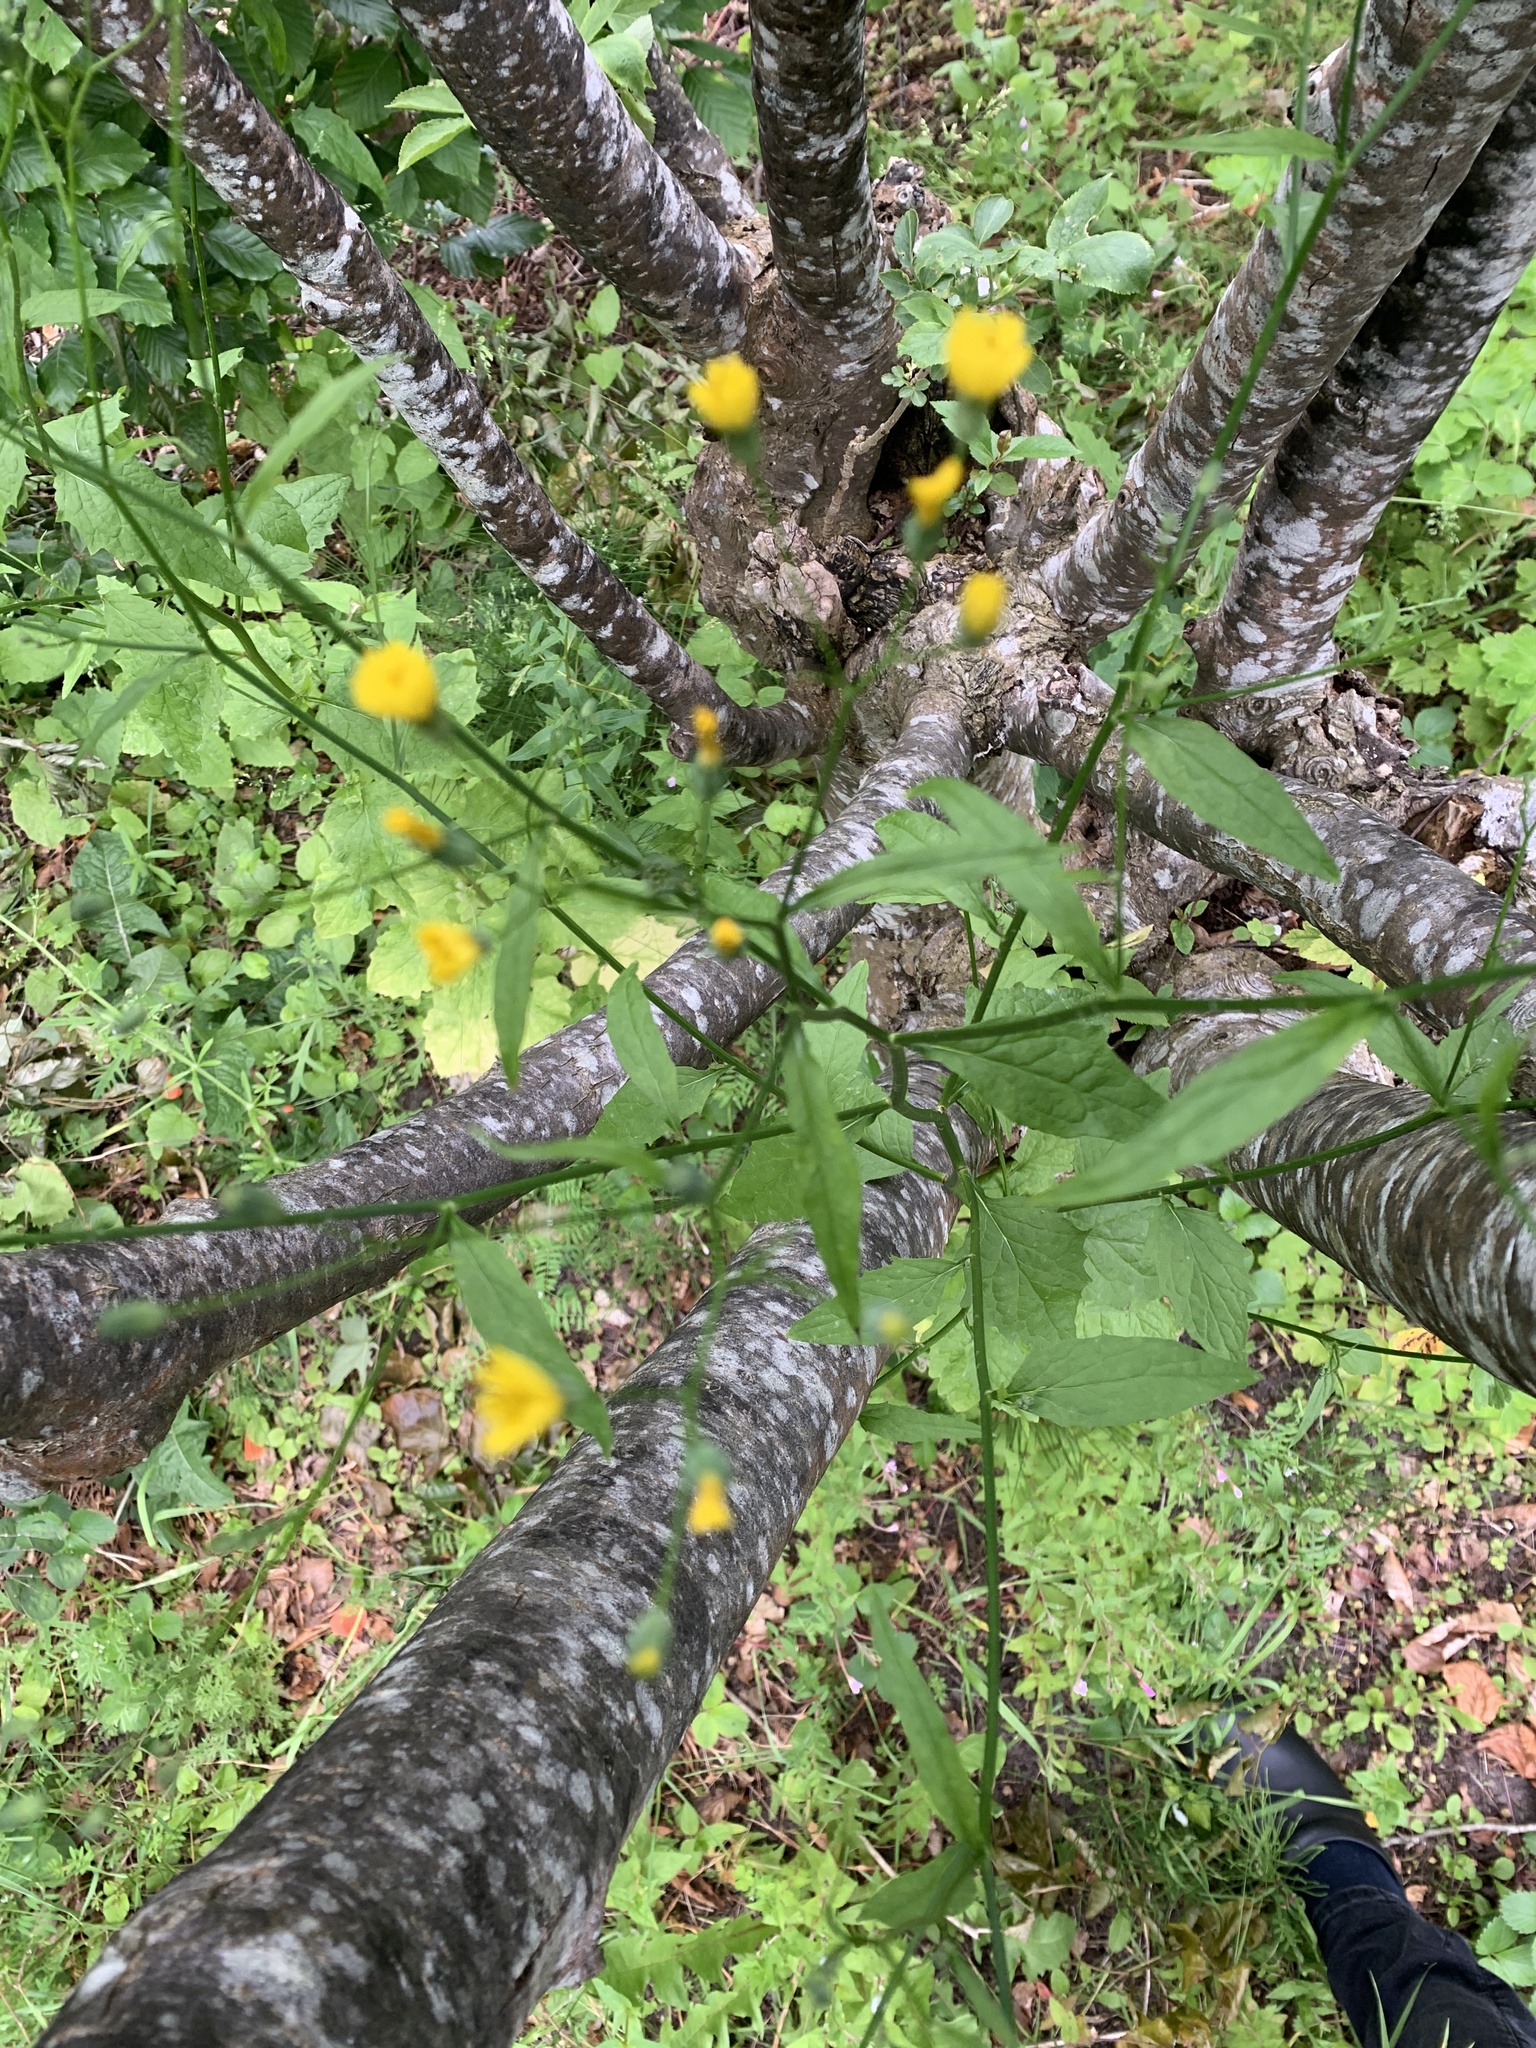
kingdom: Plantae
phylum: Tracheophyta
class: Magnoliopsida
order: Asterales
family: Asteraceae
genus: Lapsana
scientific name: Lapsana communis
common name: Nipplewort
